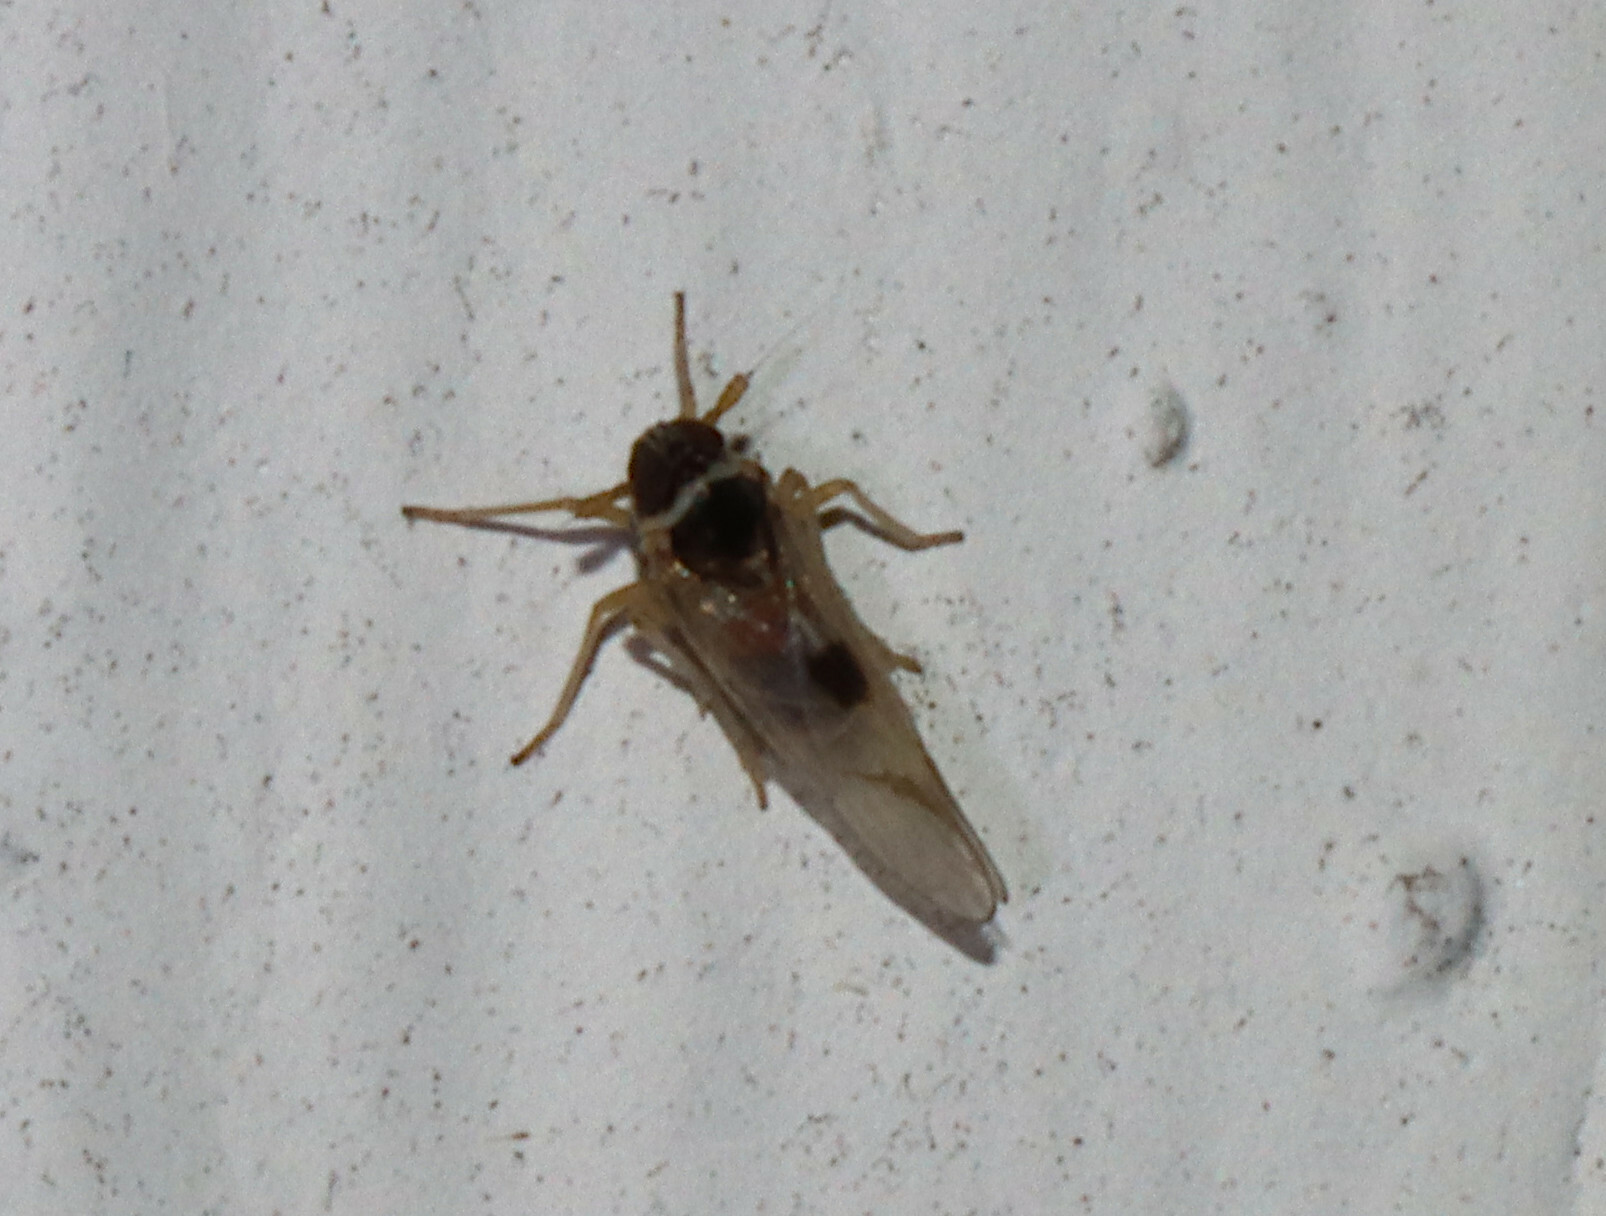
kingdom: Animalia
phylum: Arthropoda
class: Insecta
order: Hemiptera
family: Delphacidae
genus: Chionomus
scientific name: Chionomus
